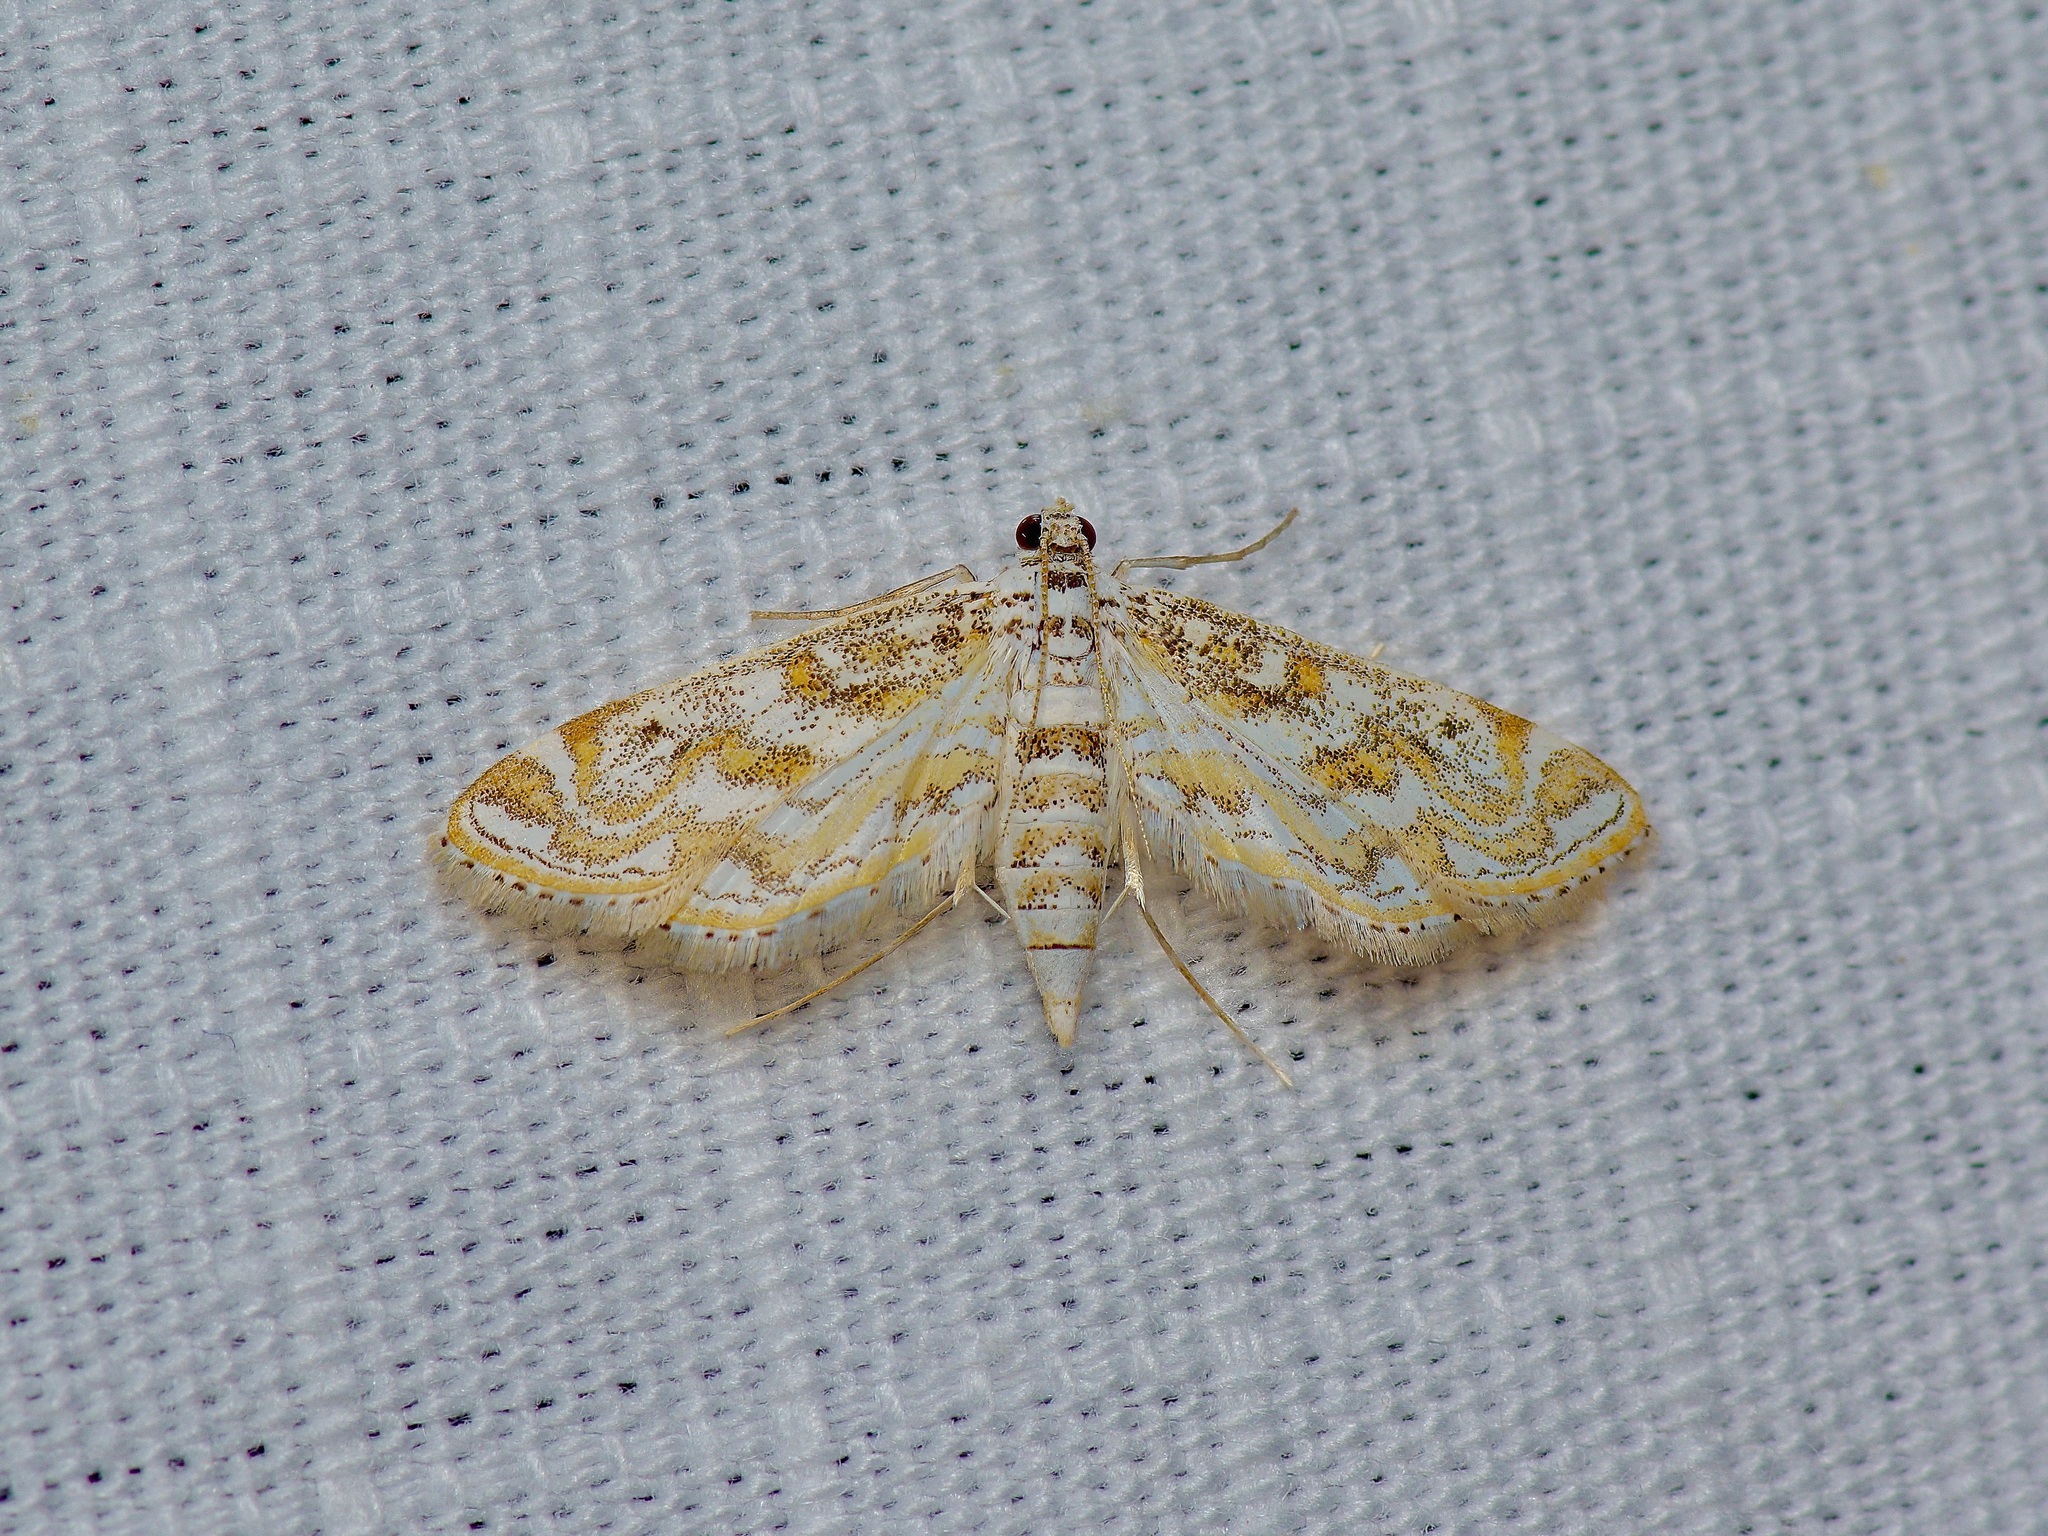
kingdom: Animalia
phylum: Arthropoda
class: Insecta
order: Lepidoptera
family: Crambidae
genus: Parapoynx
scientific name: Parapoynx diminutalis
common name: Hydrilla leafcutter
